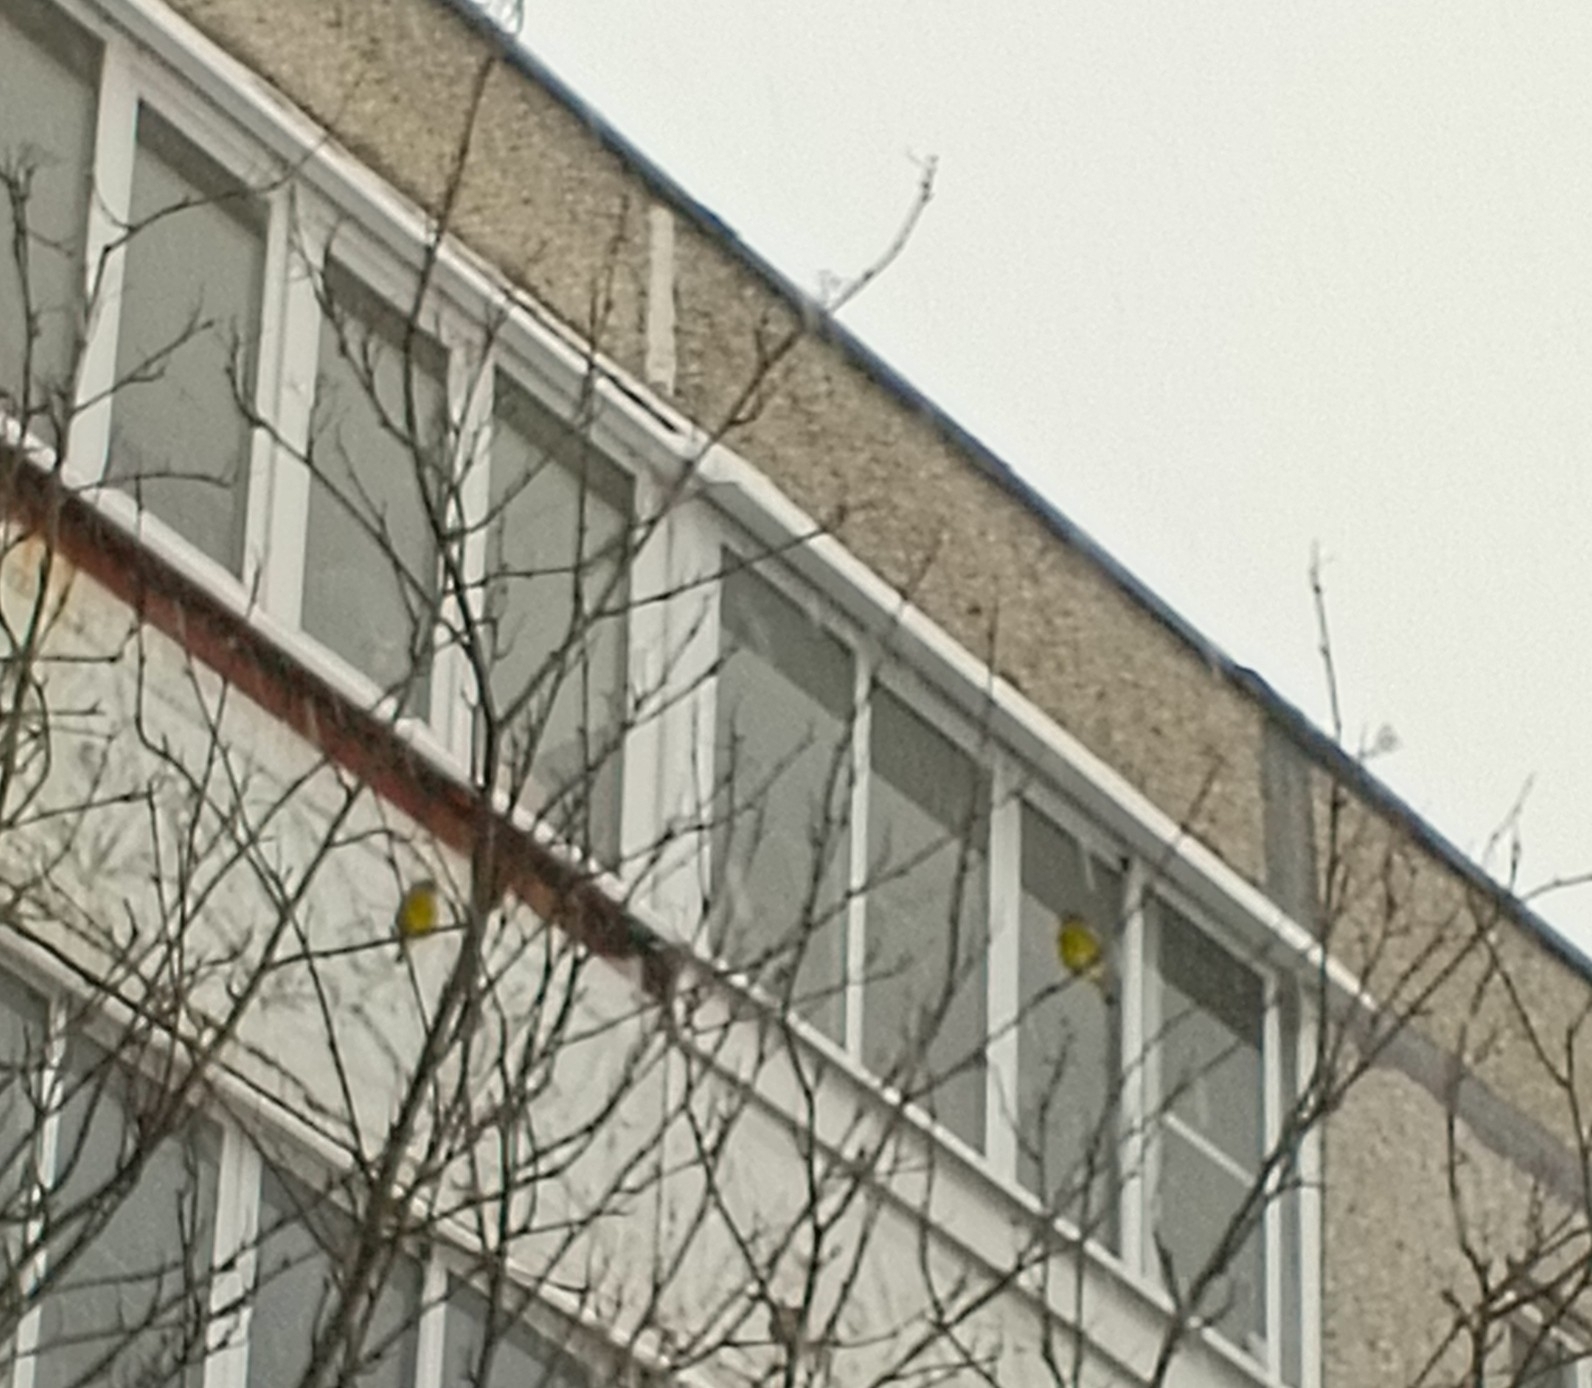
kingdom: Plantae
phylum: Tracheophyta
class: Liliopsida
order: Poales
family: Poaceae
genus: Chloris
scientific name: Chloris chloris
